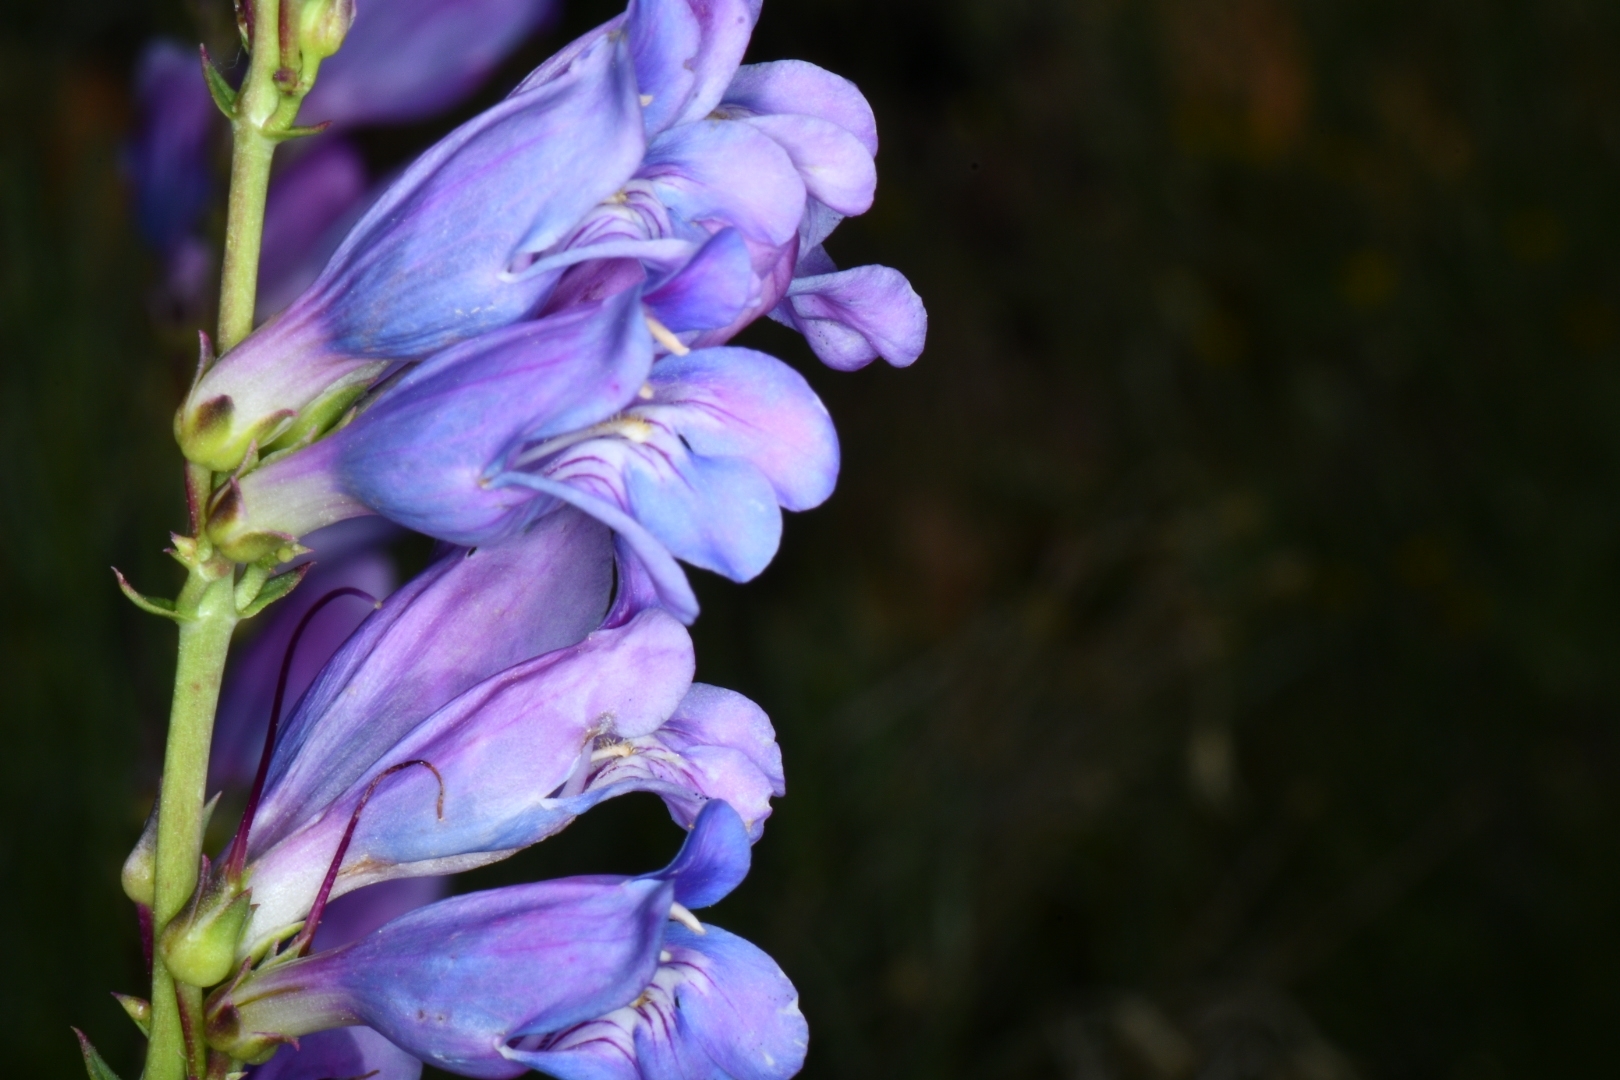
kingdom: Plantae
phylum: Tracheophyta
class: Magnoliopsida
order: Lamiales
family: Plantaginaceae
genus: Penstemon
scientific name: Penstemon laevis
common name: Smooth penstemon
